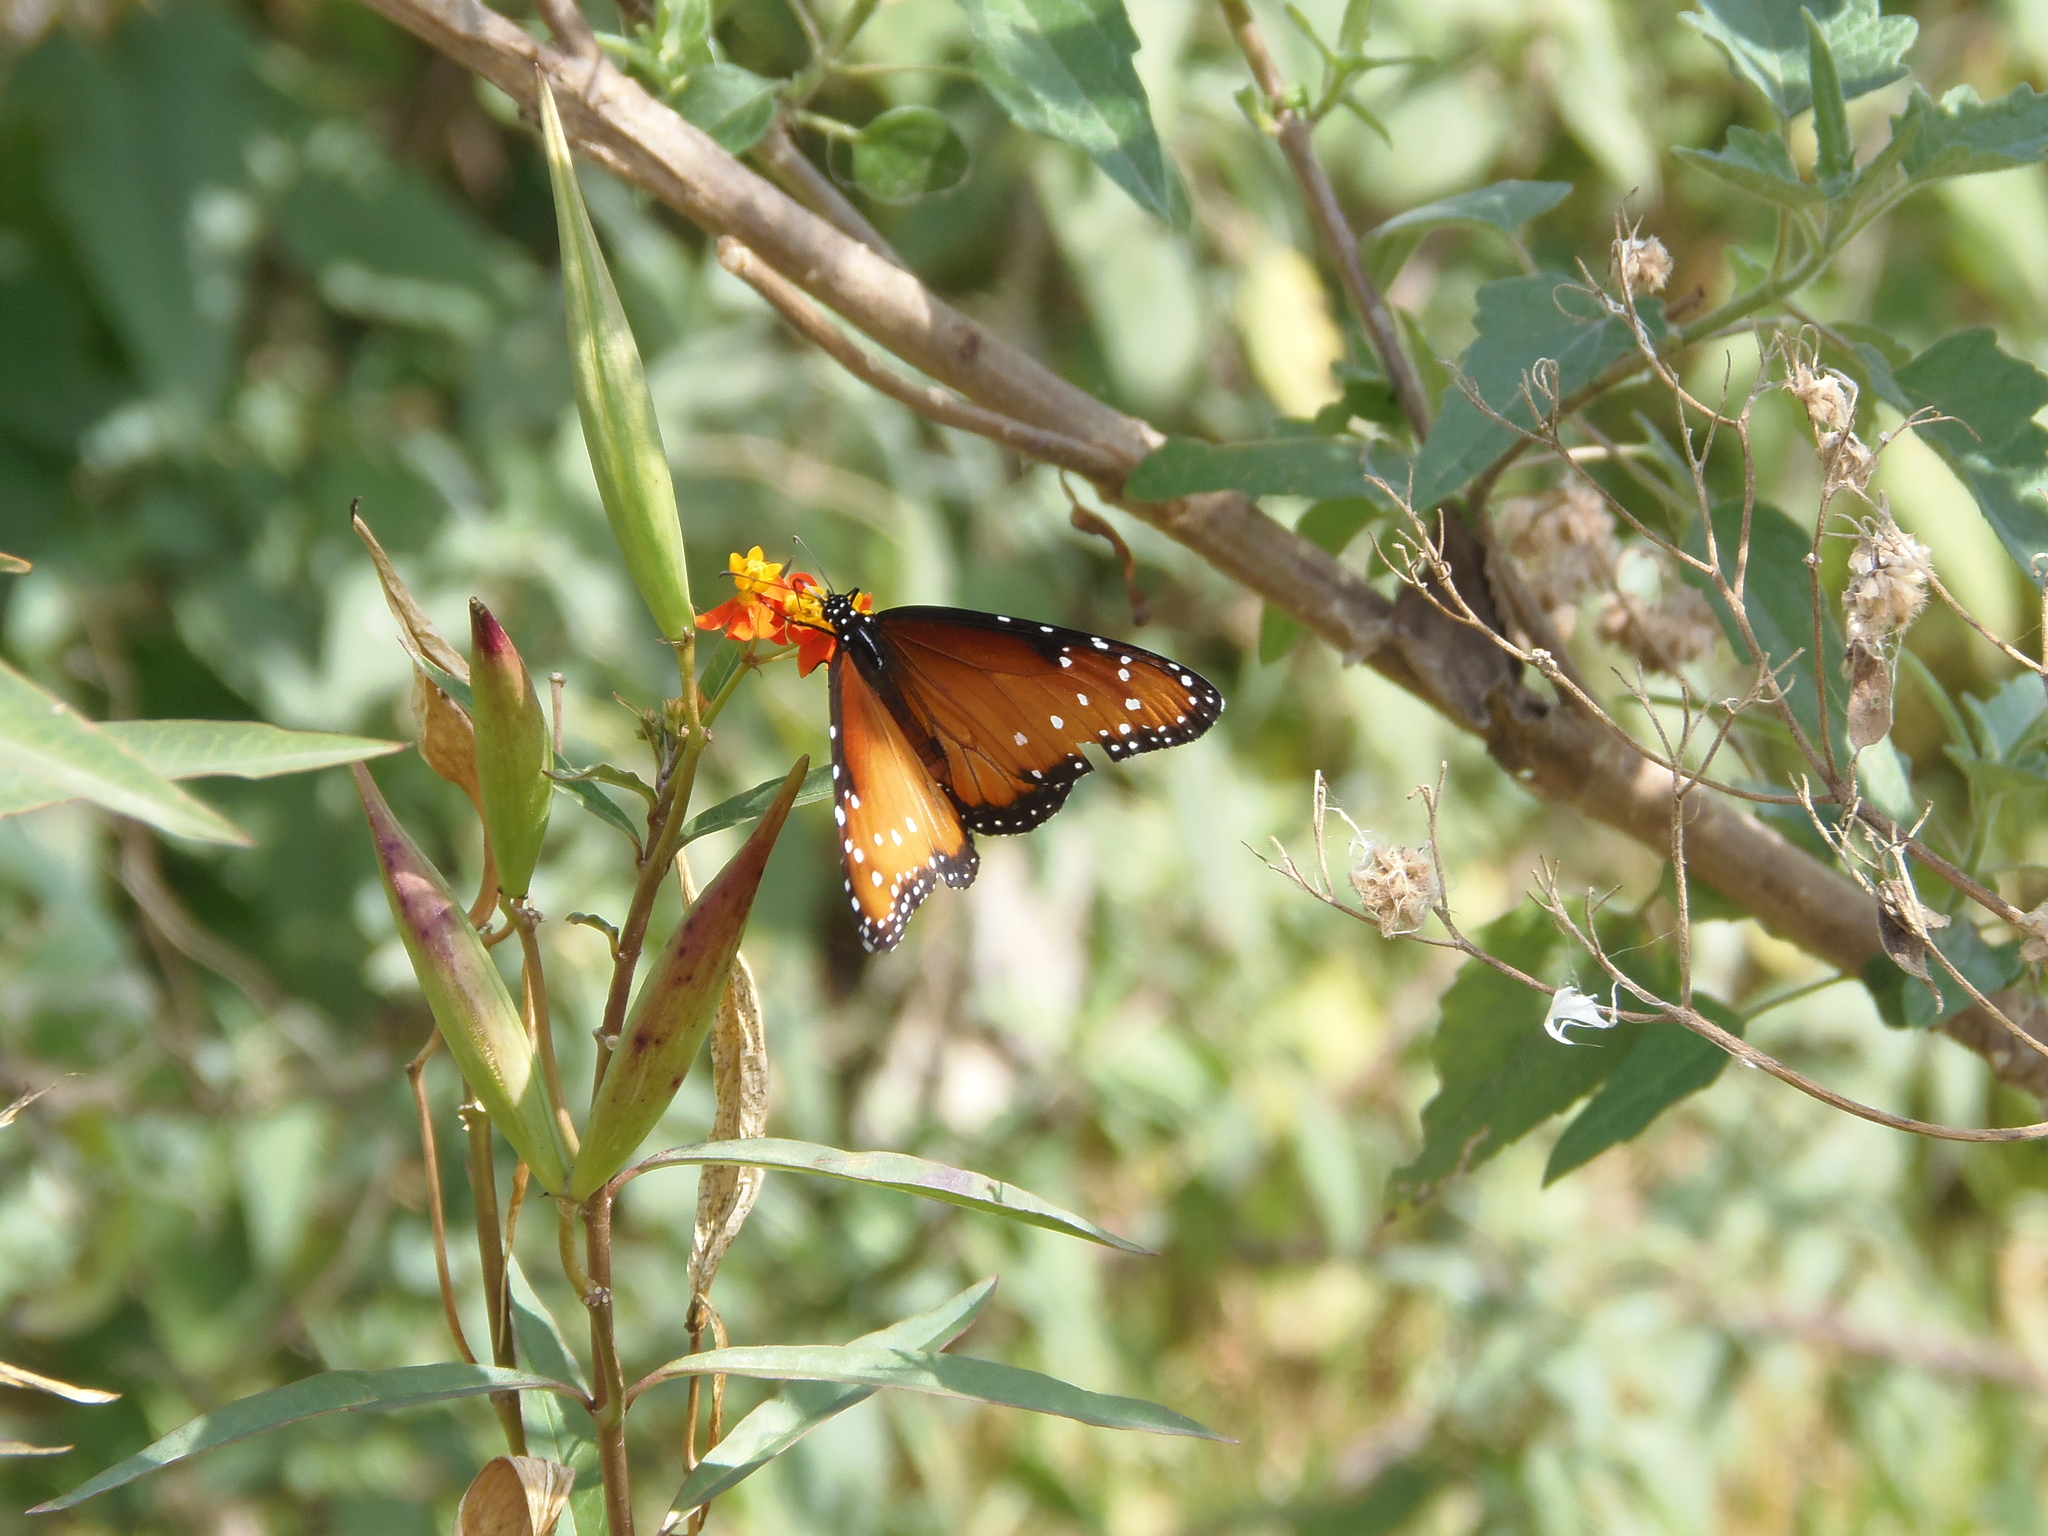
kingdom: Animalia
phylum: Arthropoda
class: Insecta
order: Lepidoptera
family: Nymphalidae
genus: Danaus
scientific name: Danaus gilippus
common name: Queen
